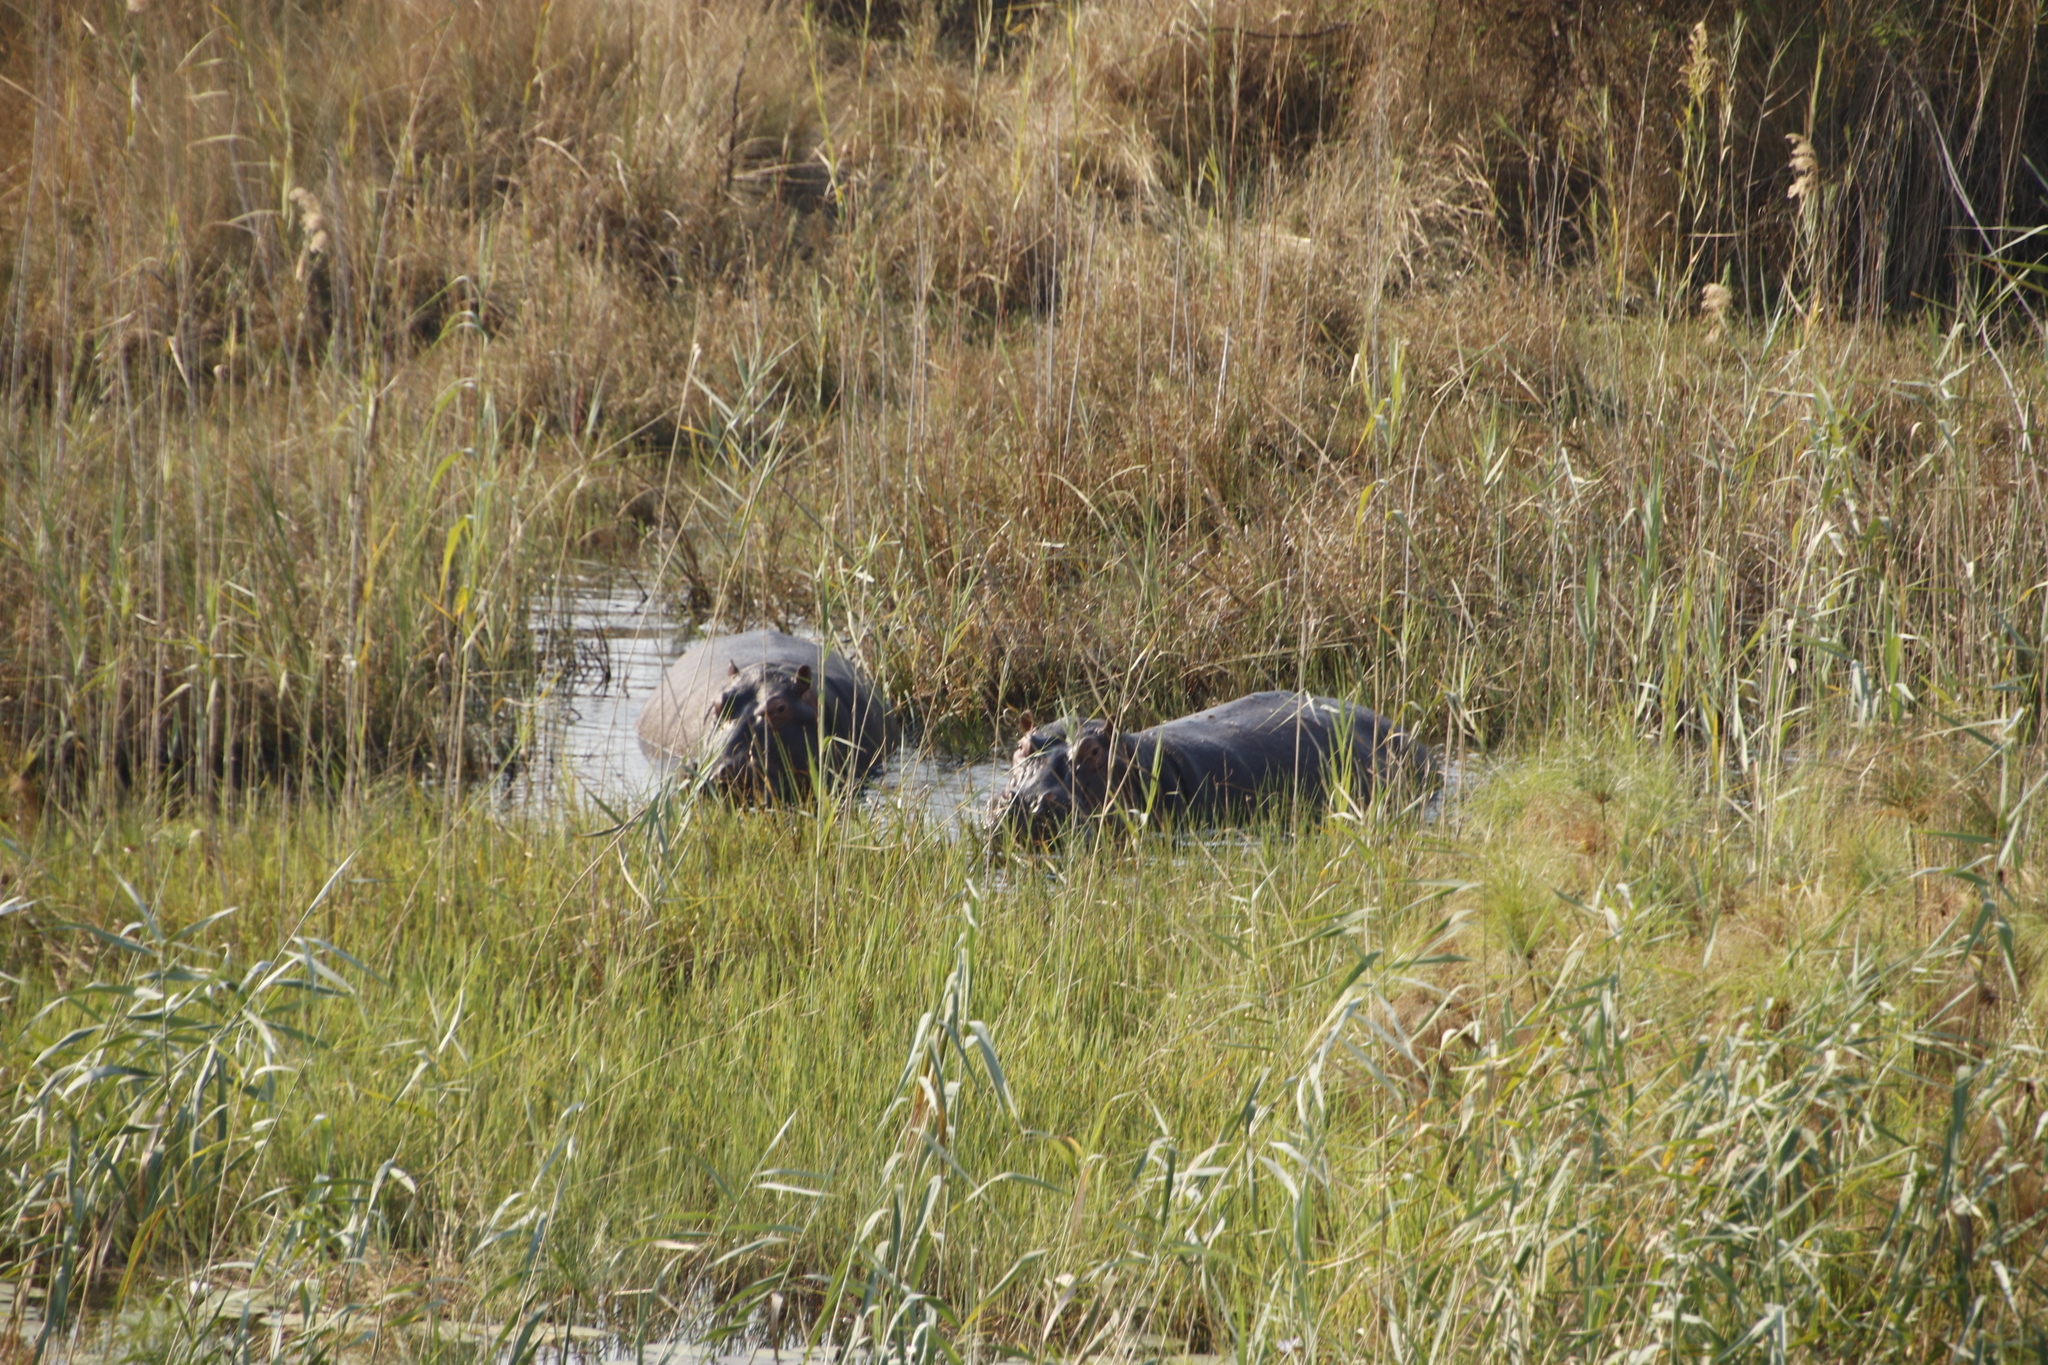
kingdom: Animalia
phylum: Chordata
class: Mammalia
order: Artiodactyla
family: Hippopotamidae
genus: Hippopotamus
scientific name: Hippopotamus amphibius
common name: Common hippopotamus
